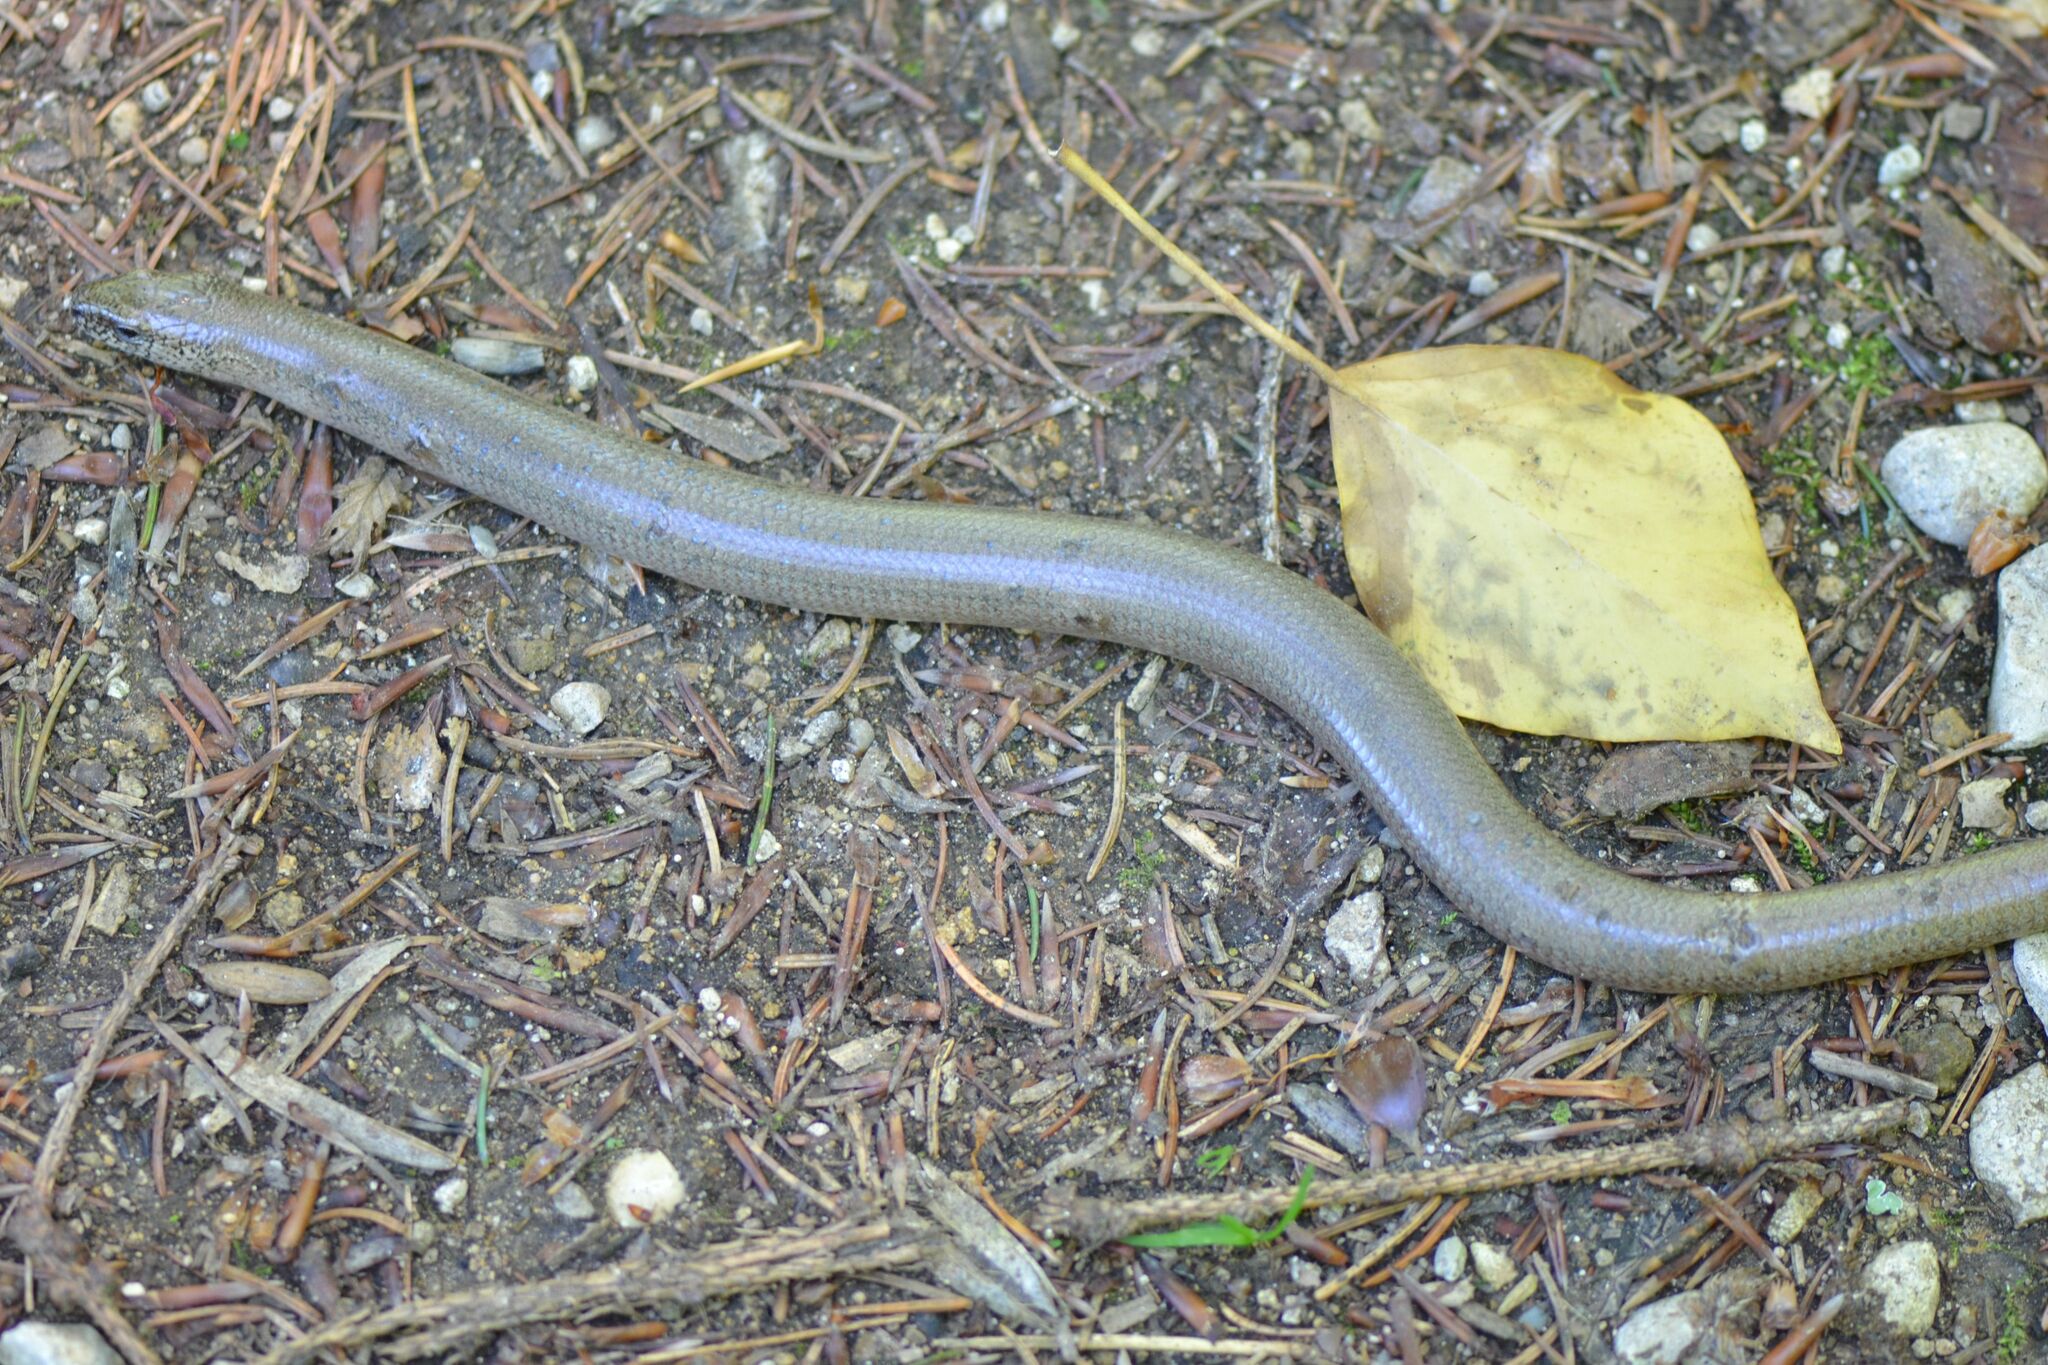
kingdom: Animalia
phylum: Chordata
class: Squamata
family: Anguidae
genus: Anguis
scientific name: Anguis fragilis
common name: Slow worm
